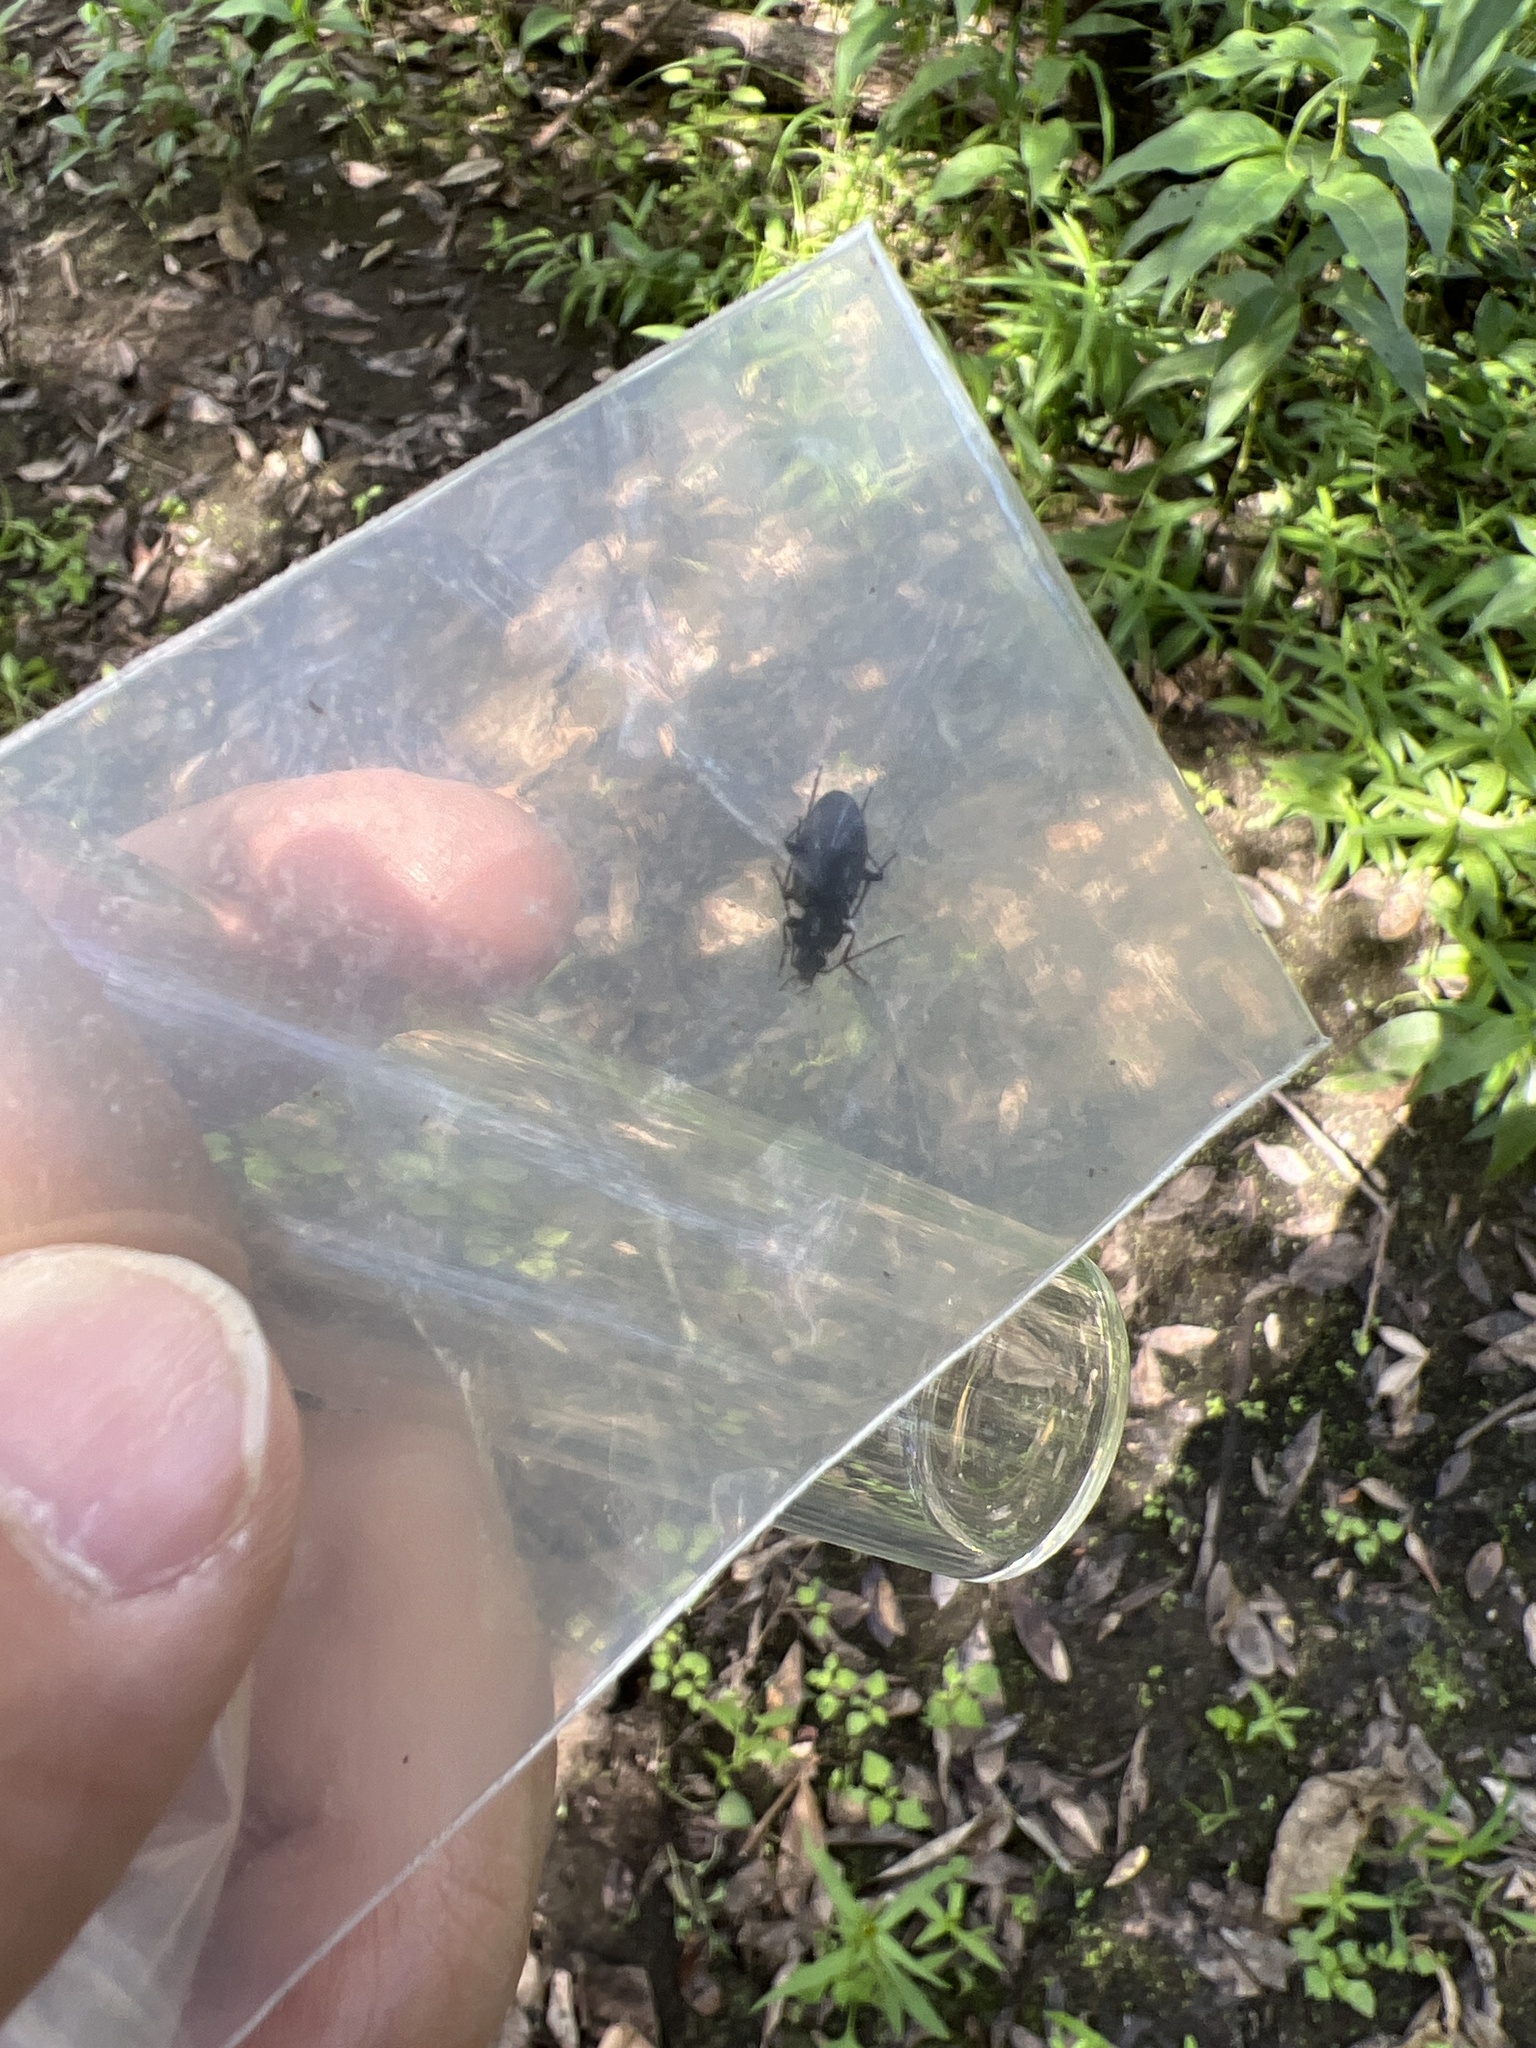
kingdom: Animalia
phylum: Arthropoda
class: Insecta
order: Coleoptera
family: Carabidae
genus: Agonum
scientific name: Agonum melanarium
